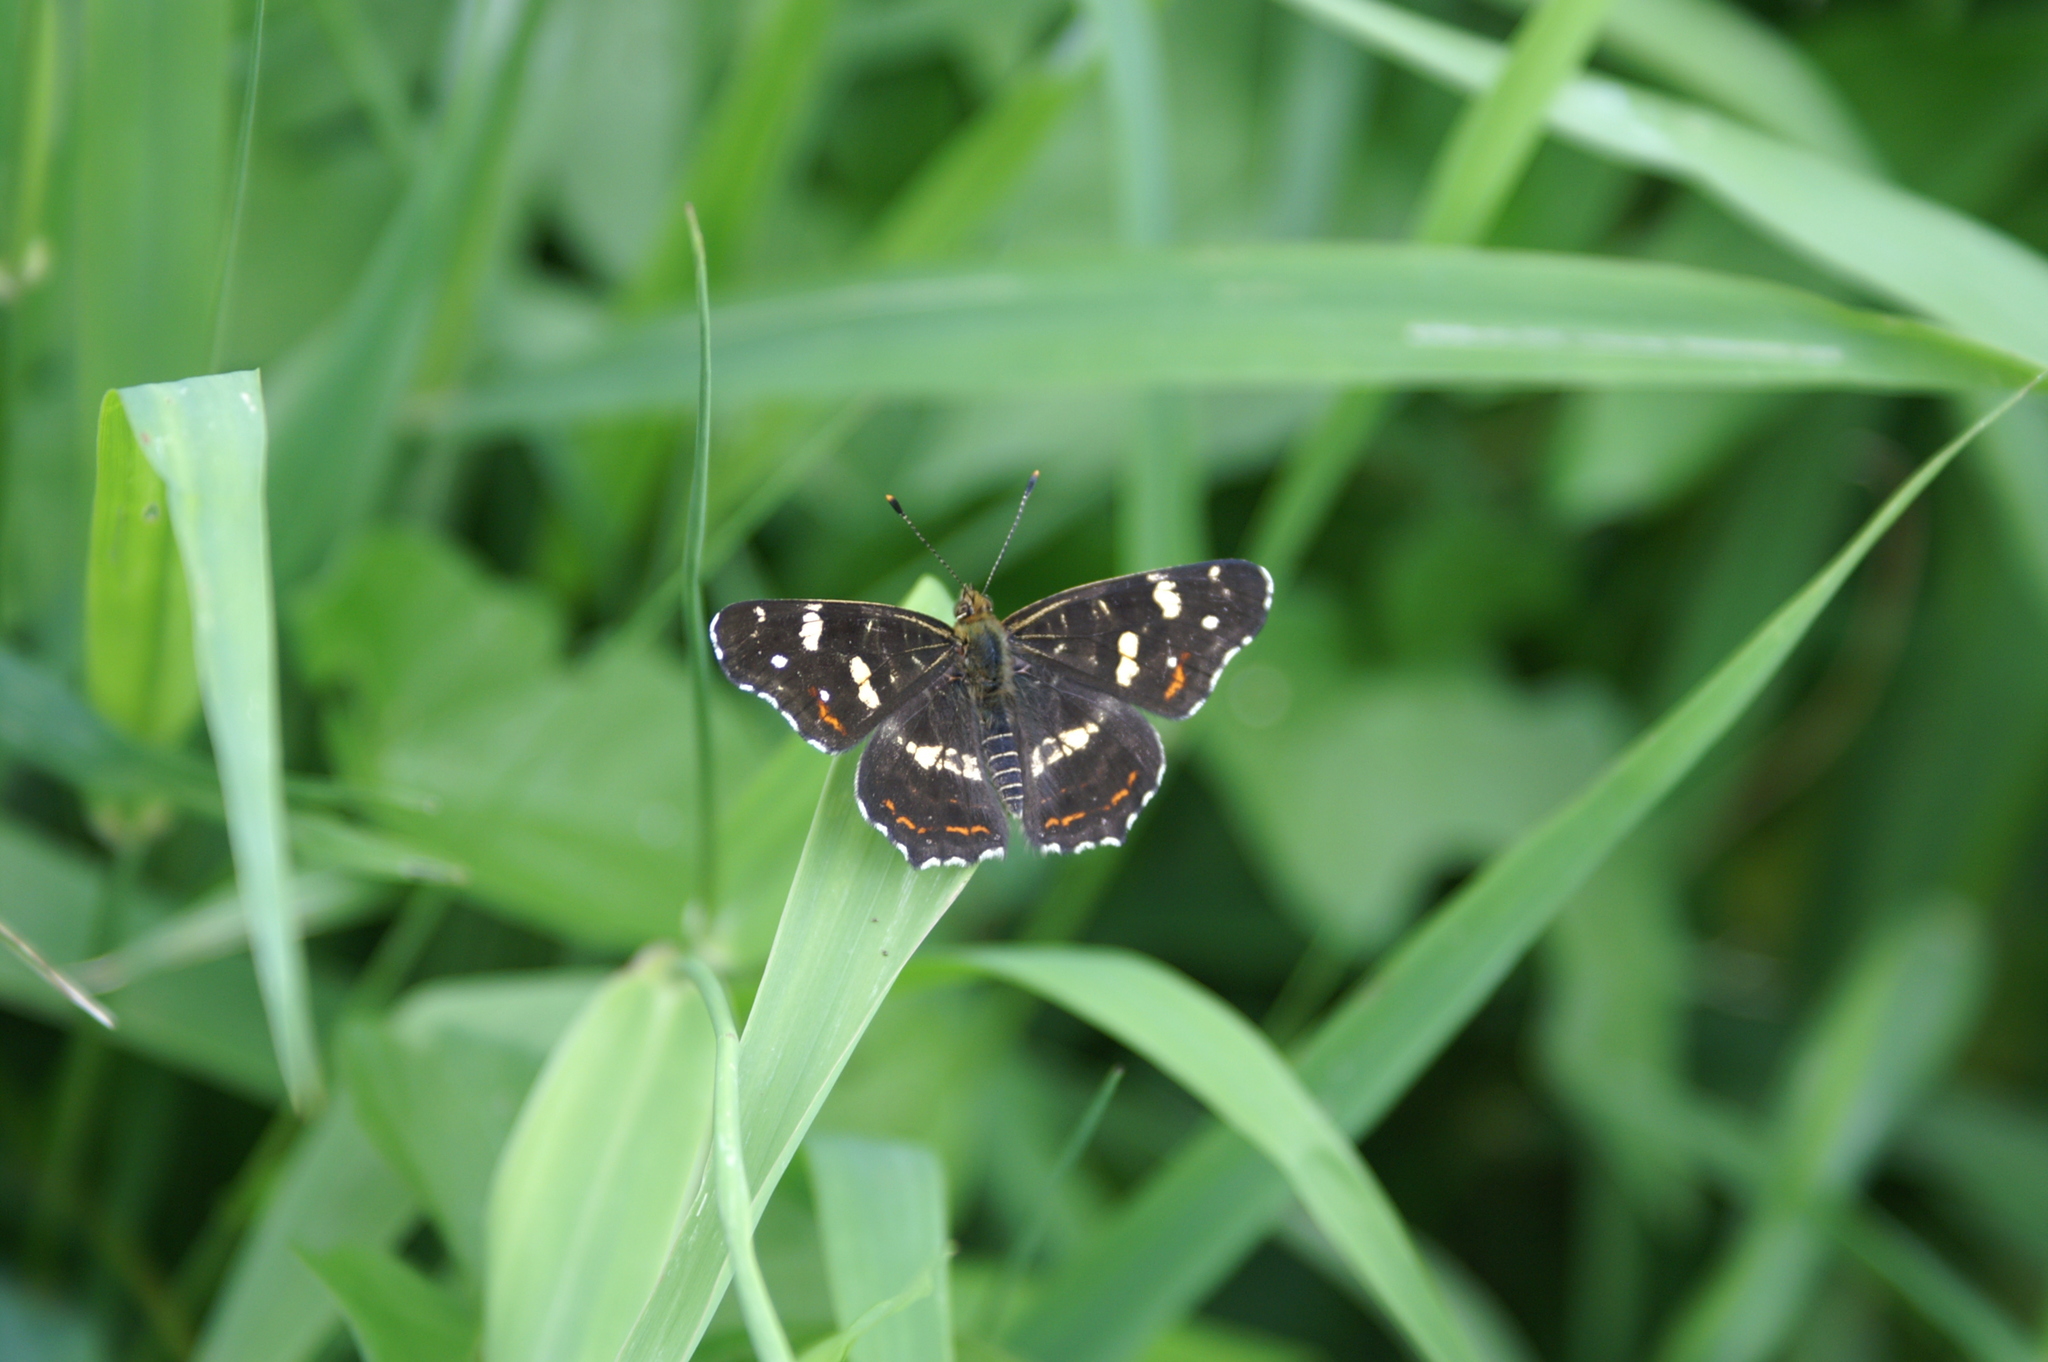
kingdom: Animalia
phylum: Arthropoda
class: Insecta
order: Lepidoptera
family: Nymphalidae
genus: Araschnia
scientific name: Araschnia levana
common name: Map butterfly
